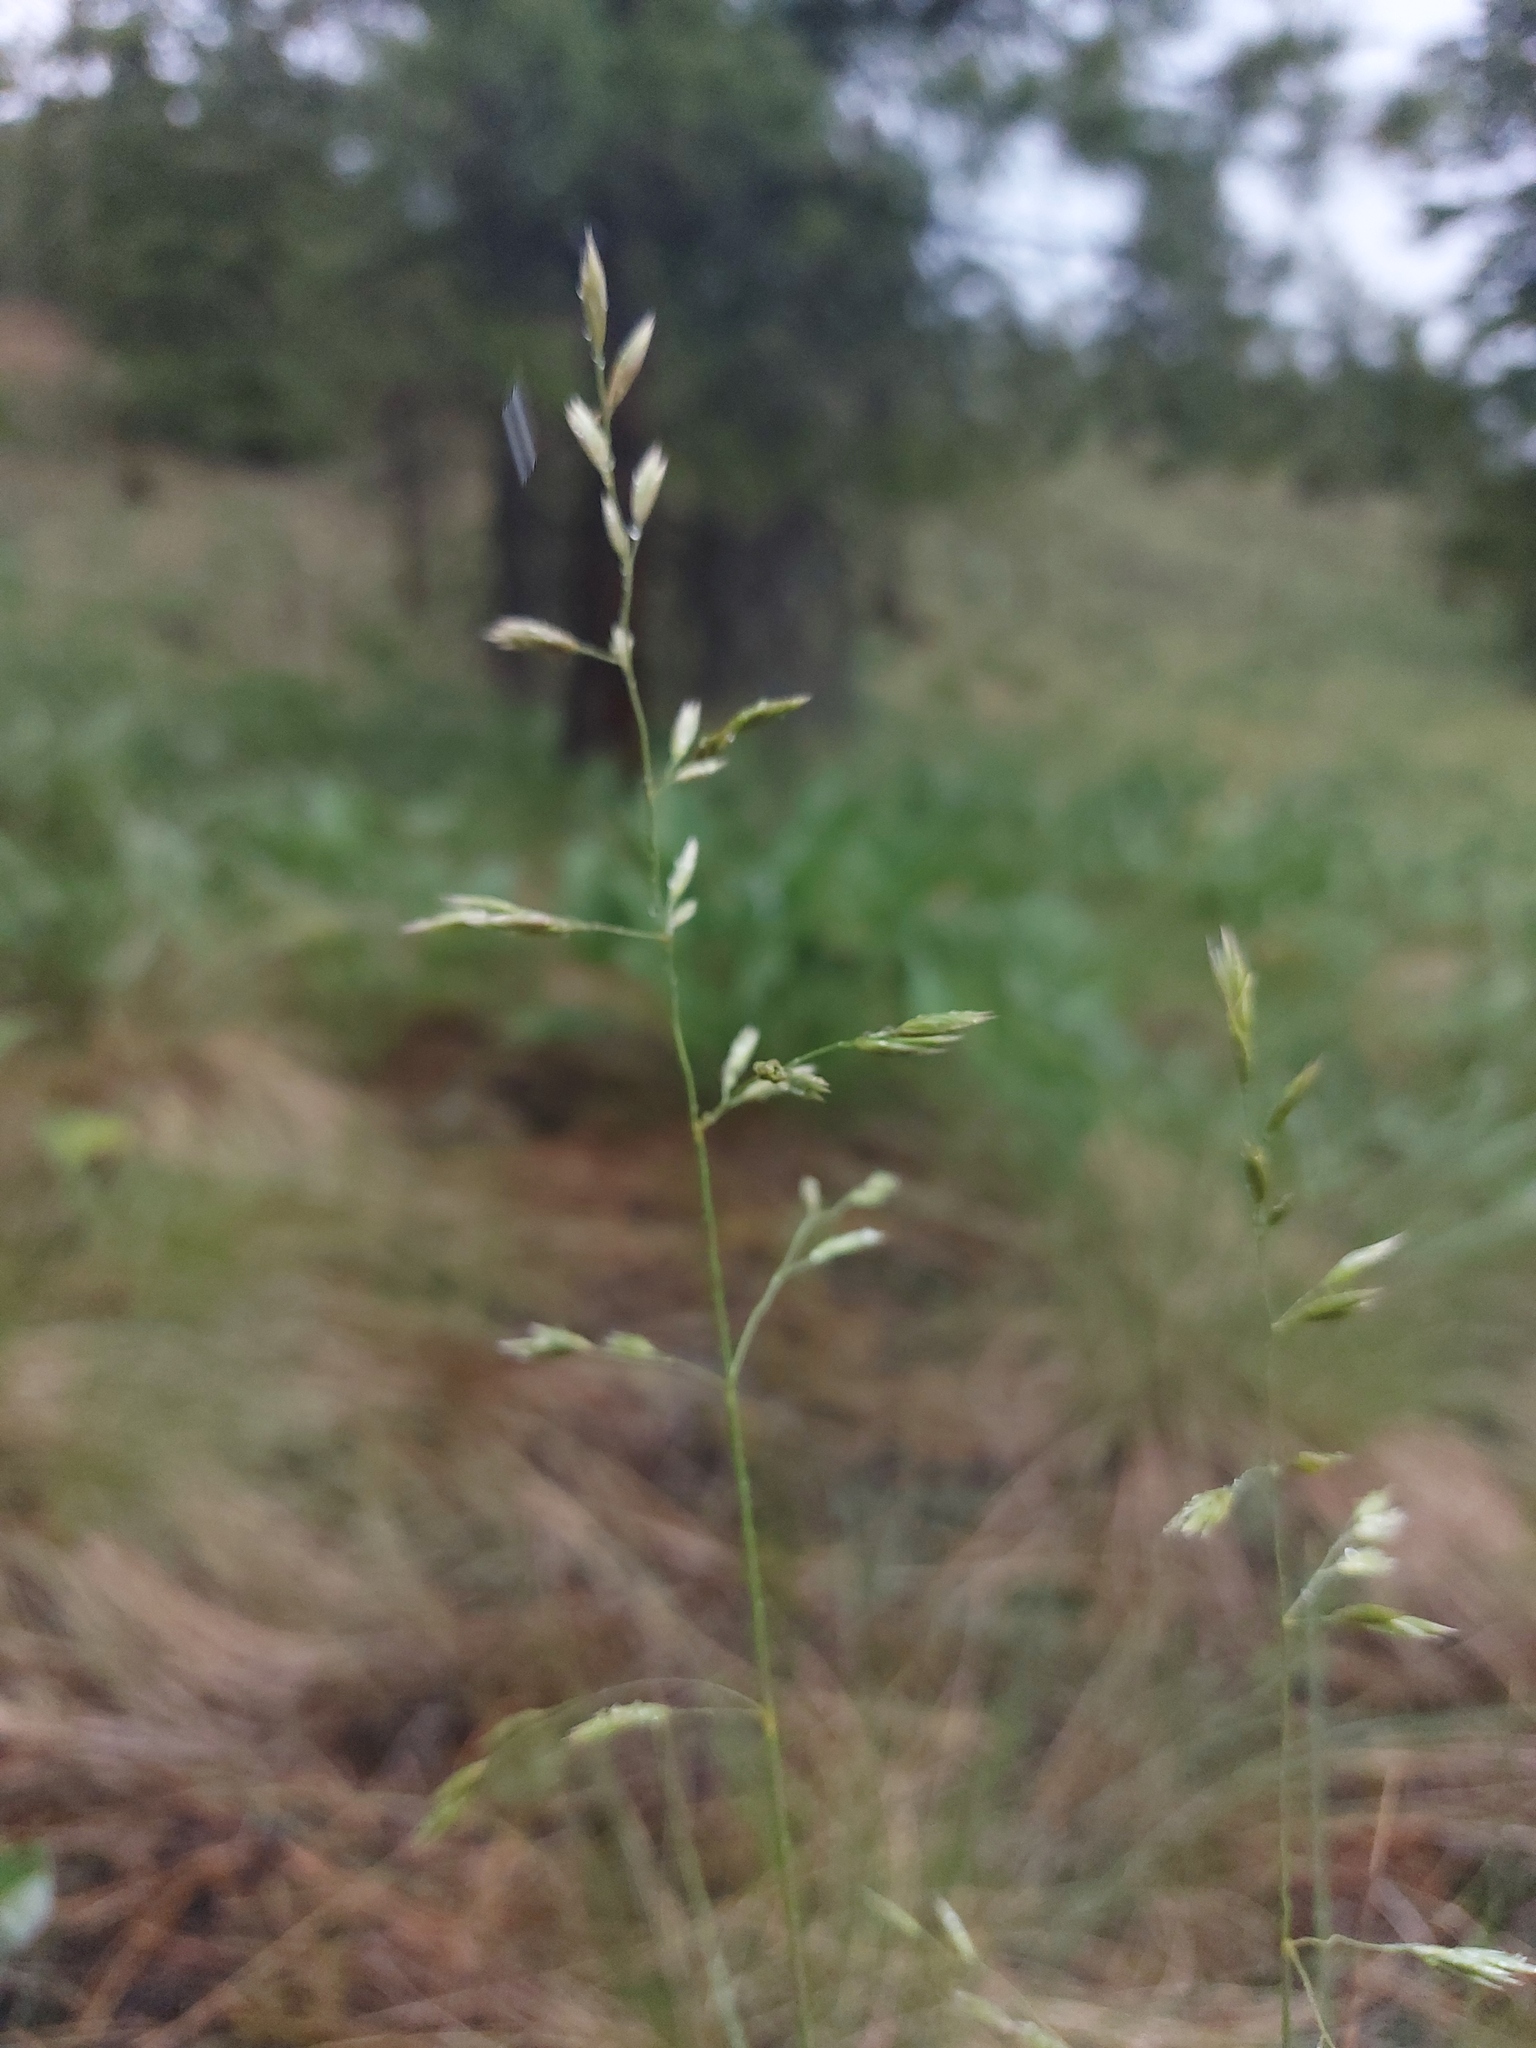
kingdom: Plantae
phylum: Tracheophyta
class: Liliopsida
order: Poales
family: Poaceae
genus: Festuca
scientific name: Festuca campestris
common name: Mountain rough fescue
